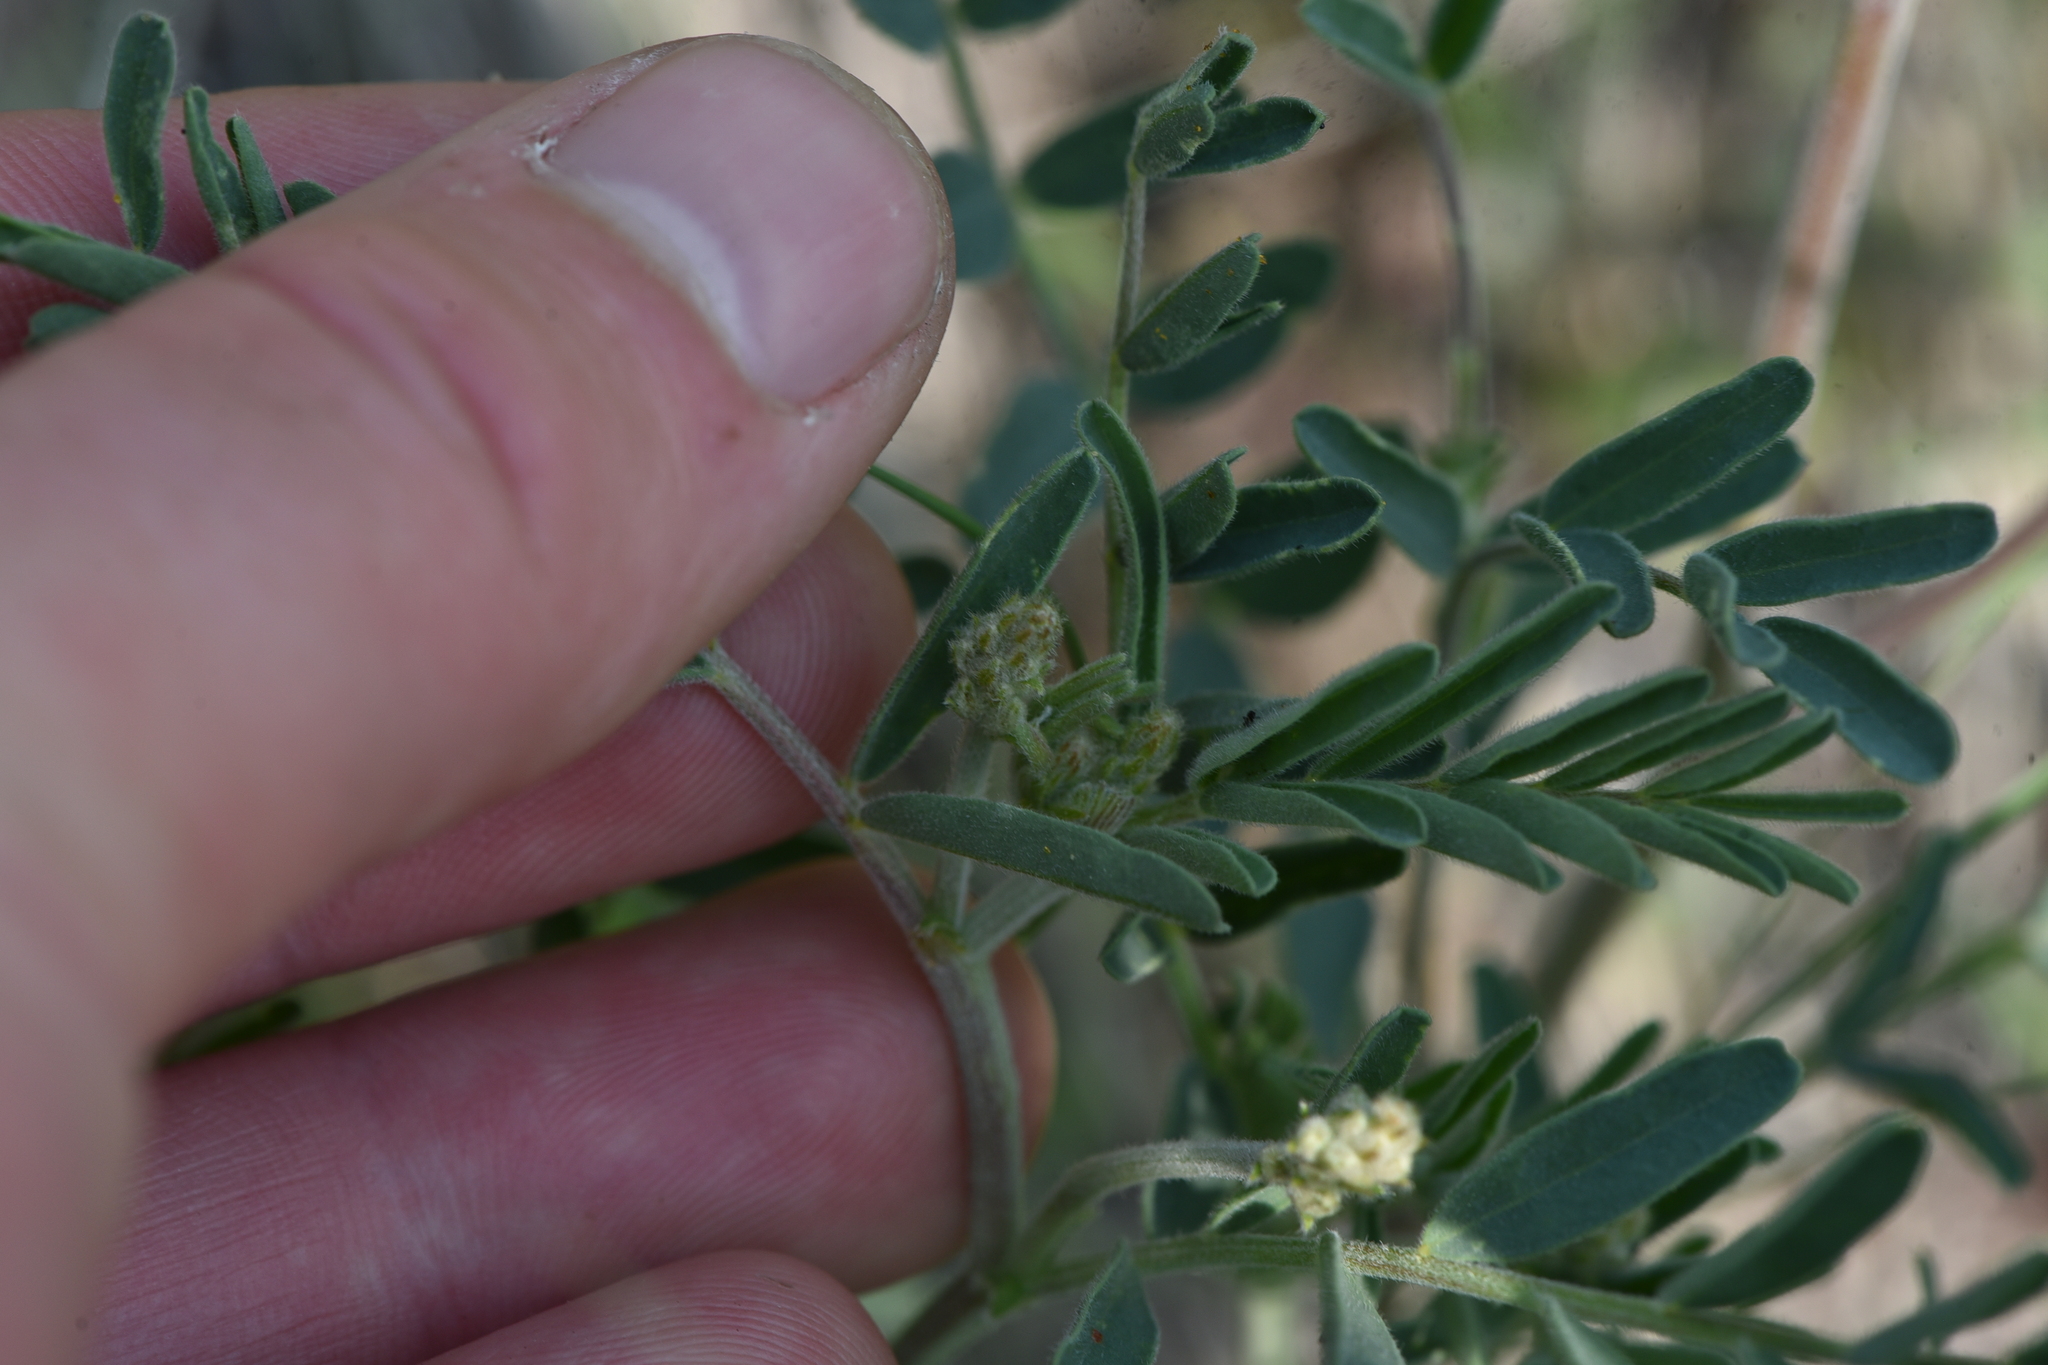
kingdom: Plantae
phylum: Tracheophyta
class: Magnoliopsida
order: Fabales
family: Fabaceae
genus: Astragalus
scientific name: Astragalus collinus
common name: Hill milk-vetch
